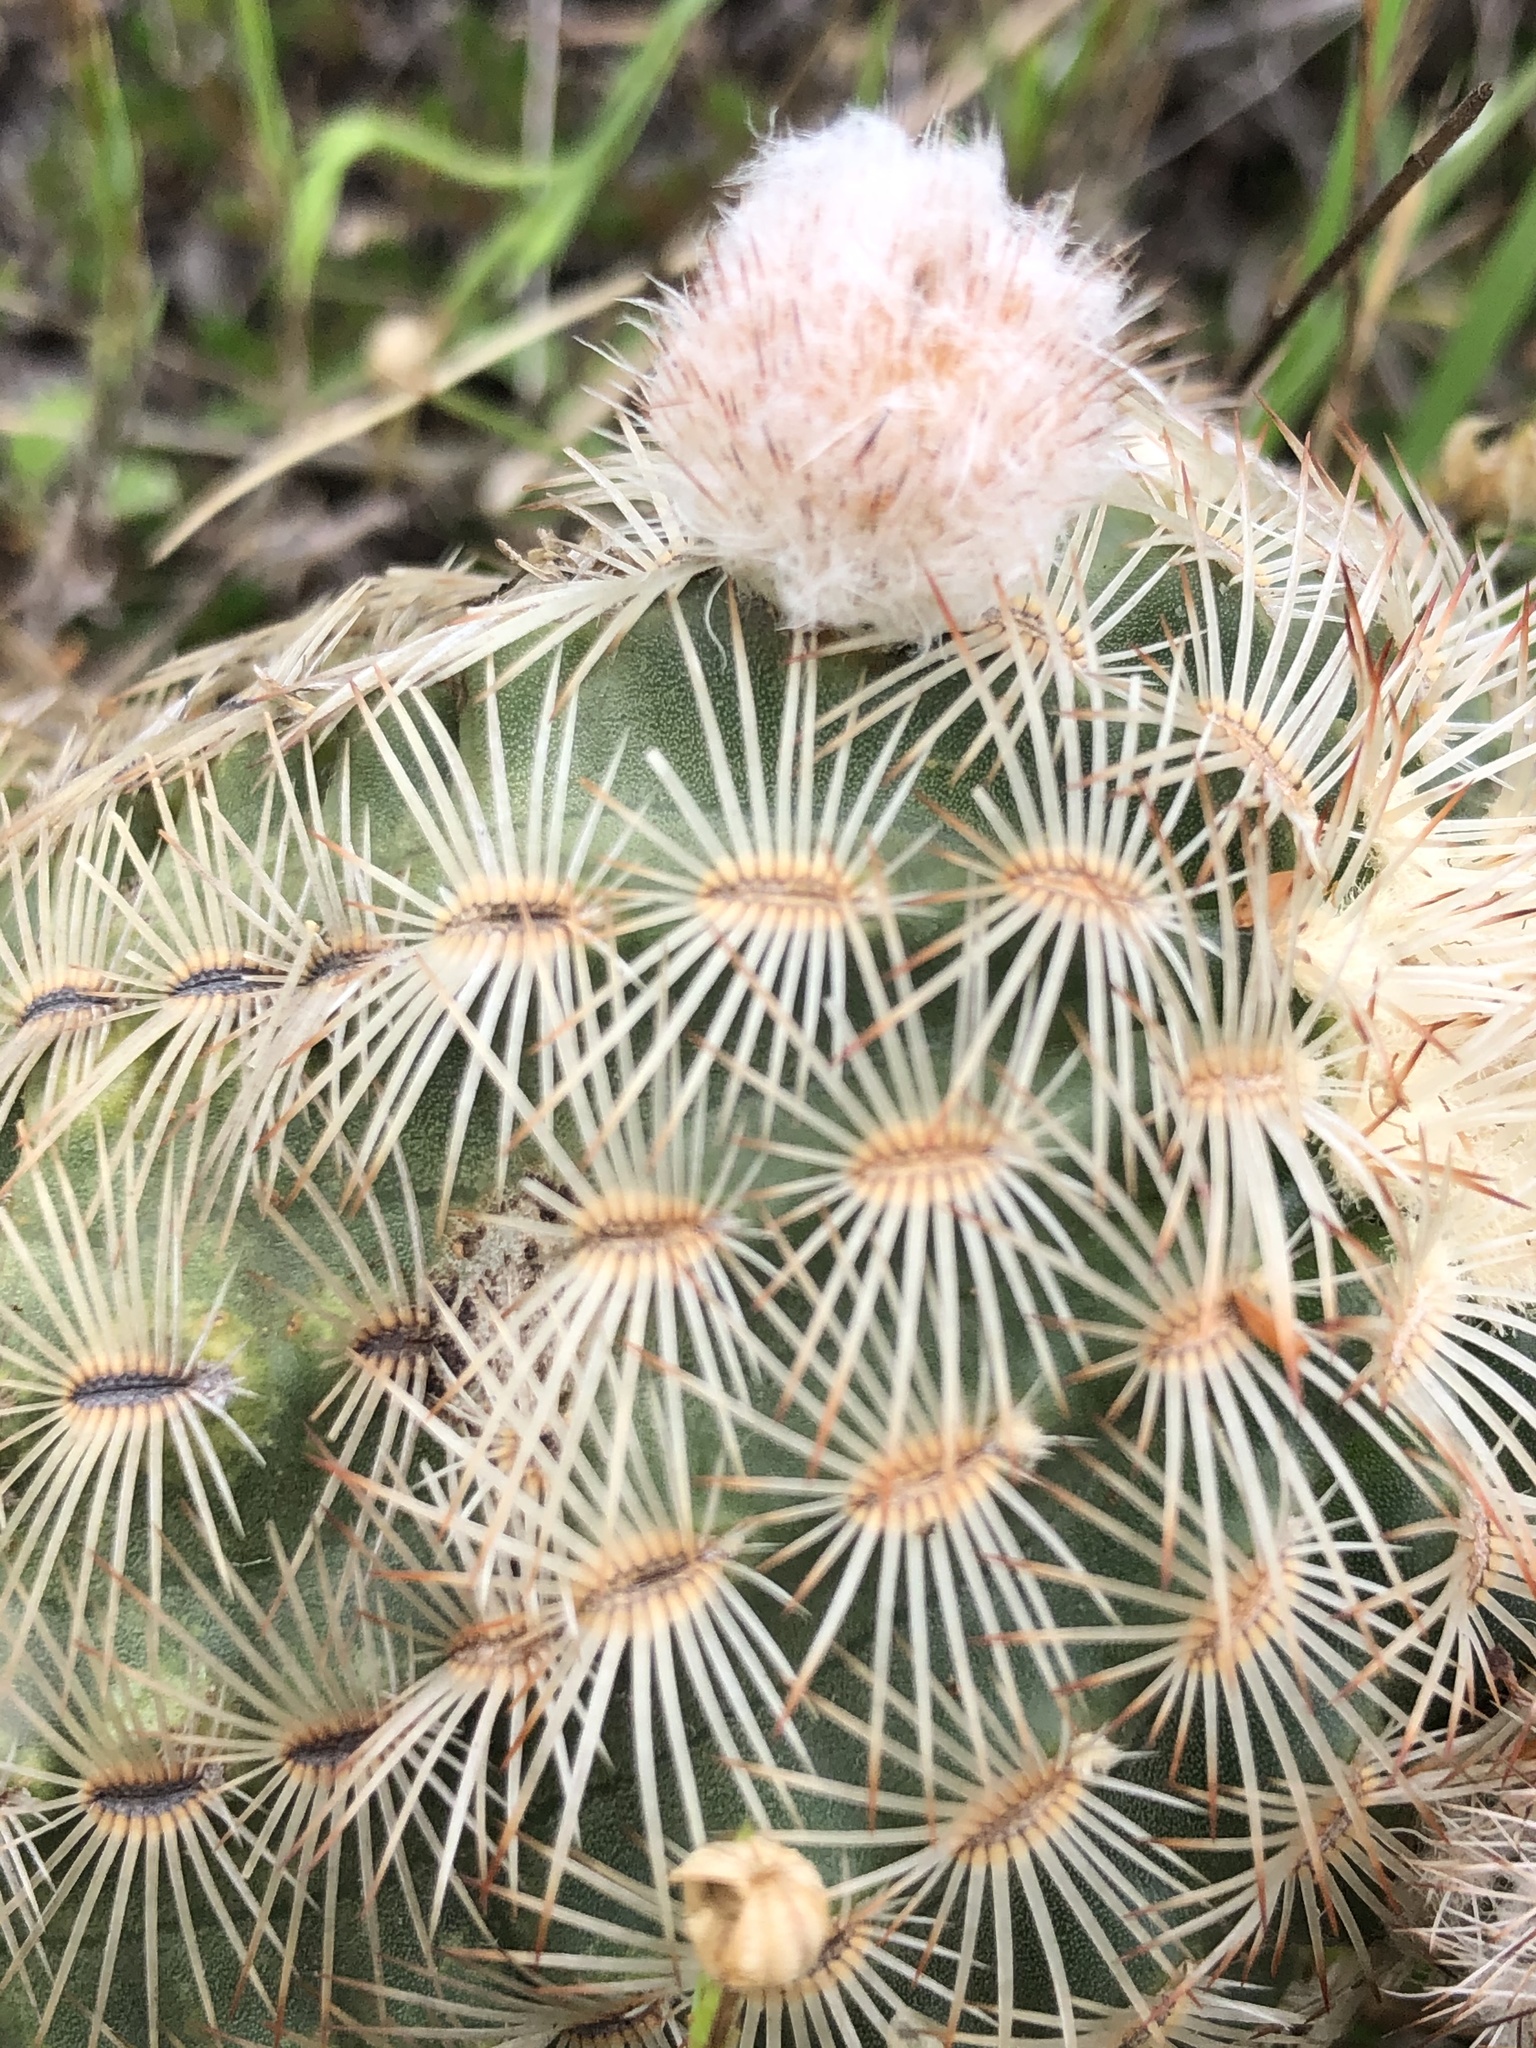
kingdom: Plantae
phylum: Tracheophyta
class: Magnoliopsida
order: Caryophyllales
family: Cactaceae
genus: Echinocereus
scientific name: Echinocereus reichenbachii
